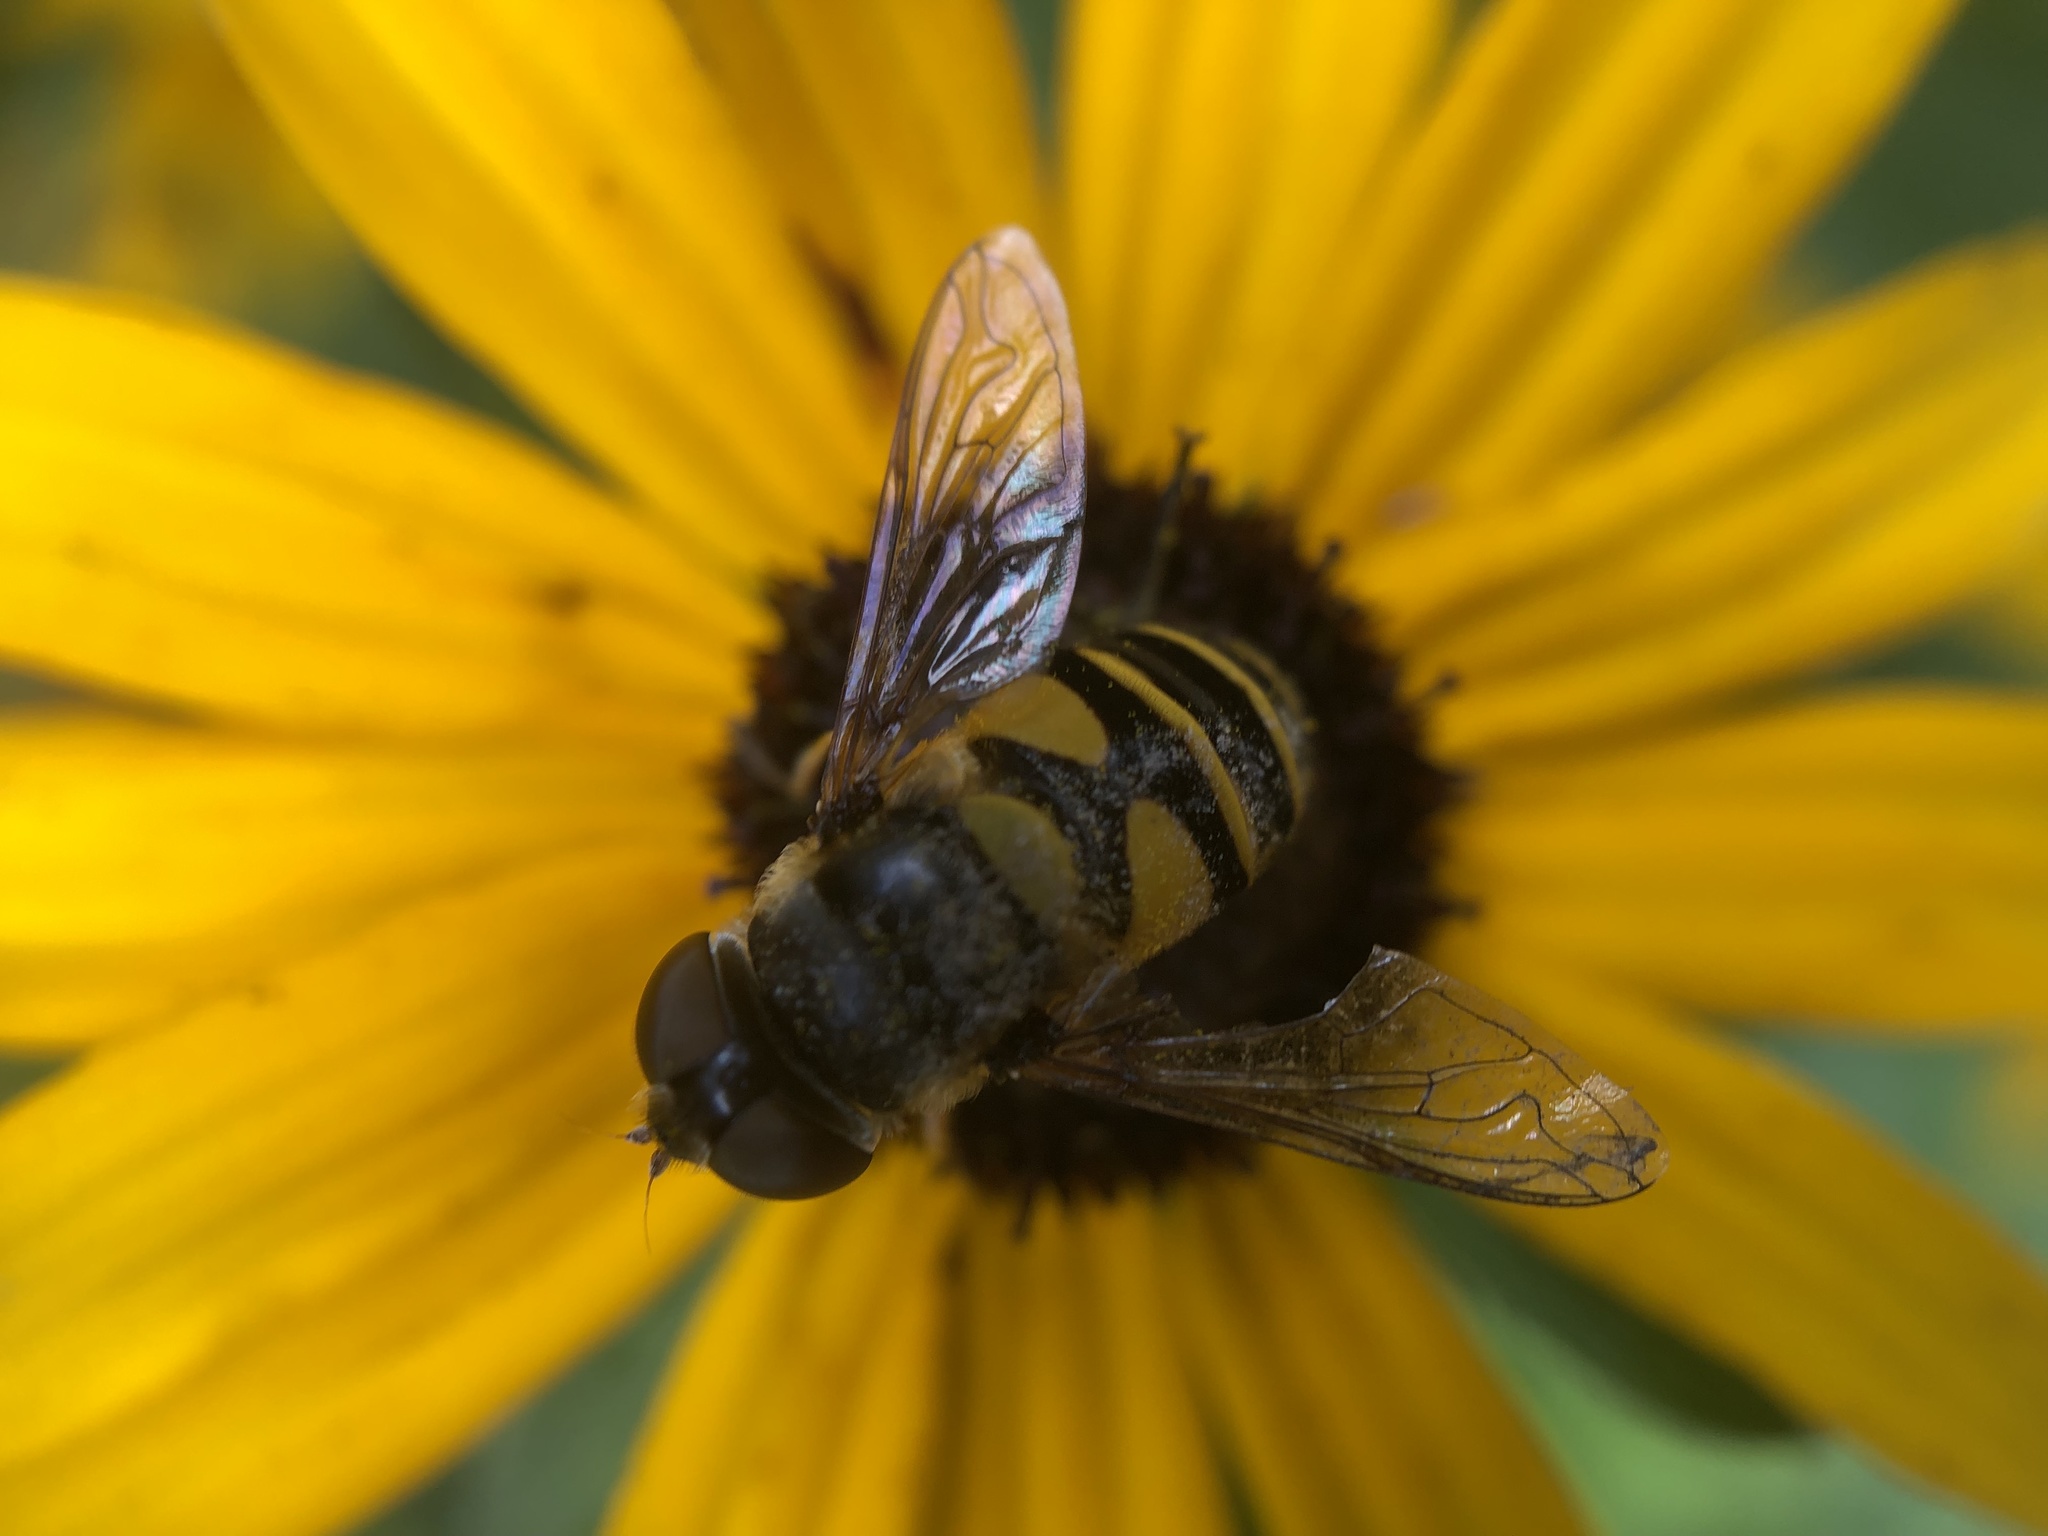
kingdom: Animalia
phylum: Arthropoda
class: Insecta
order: Diptera
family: Syrphidae
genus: Eristalis
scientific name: Eristalis transversa
